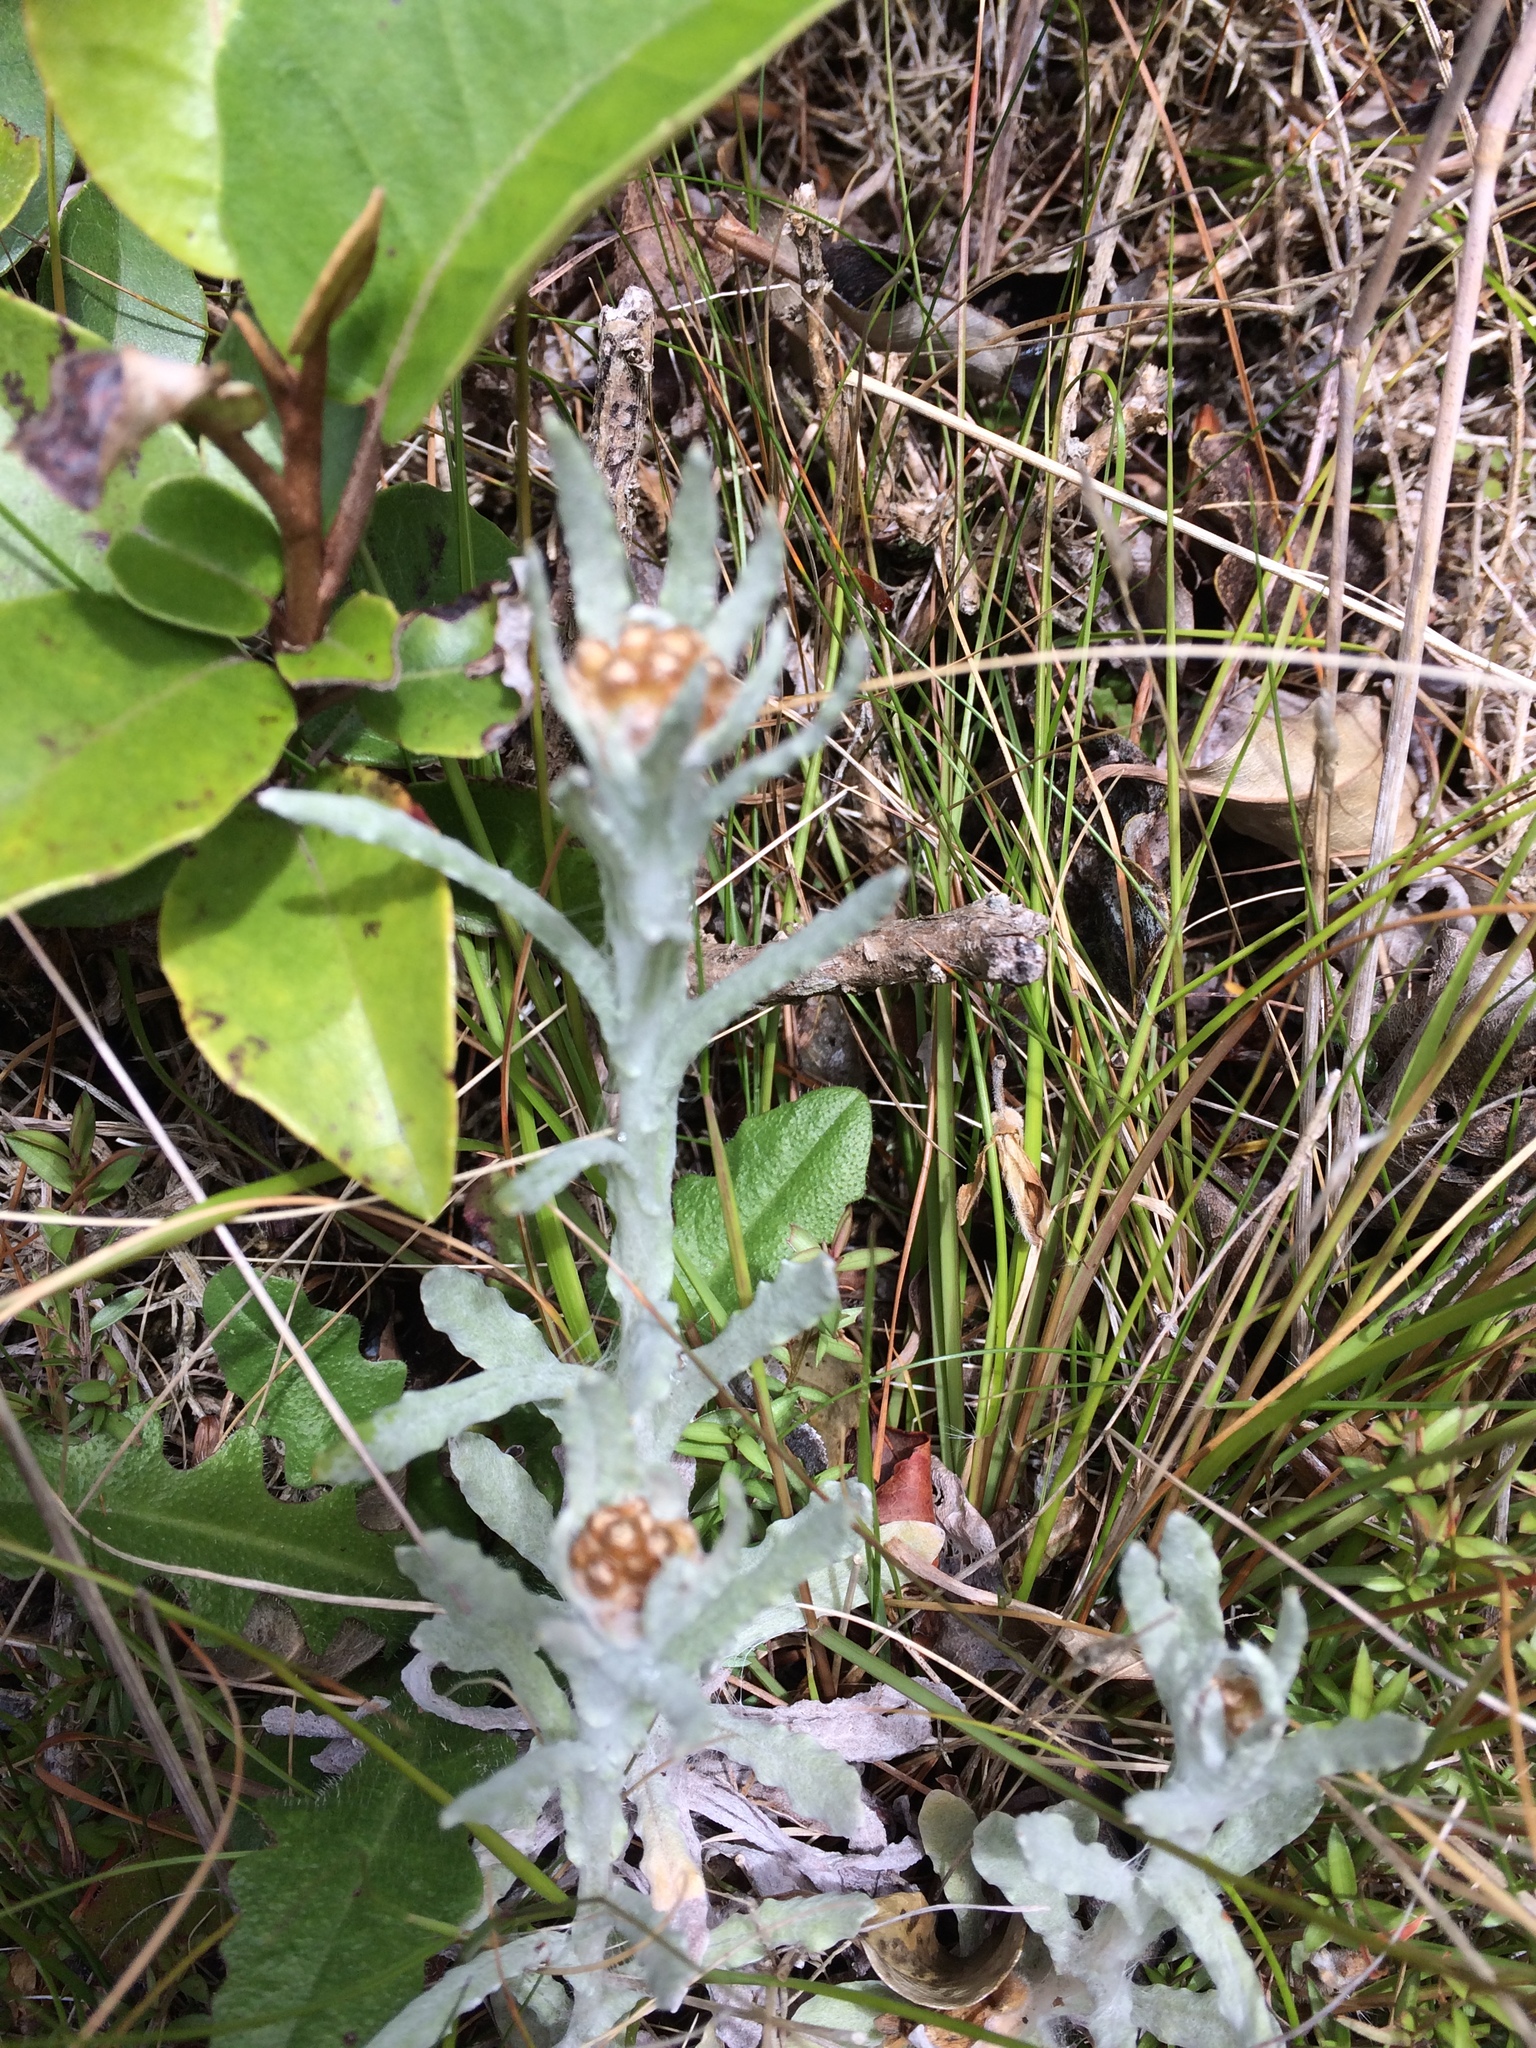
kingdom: Plantae
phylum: Tracheophyta
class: Magnoliopsida
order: Asterales
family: Asteraceae
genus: Helichrysum
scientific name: Helichrysum luteoalbum
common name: Daisy
